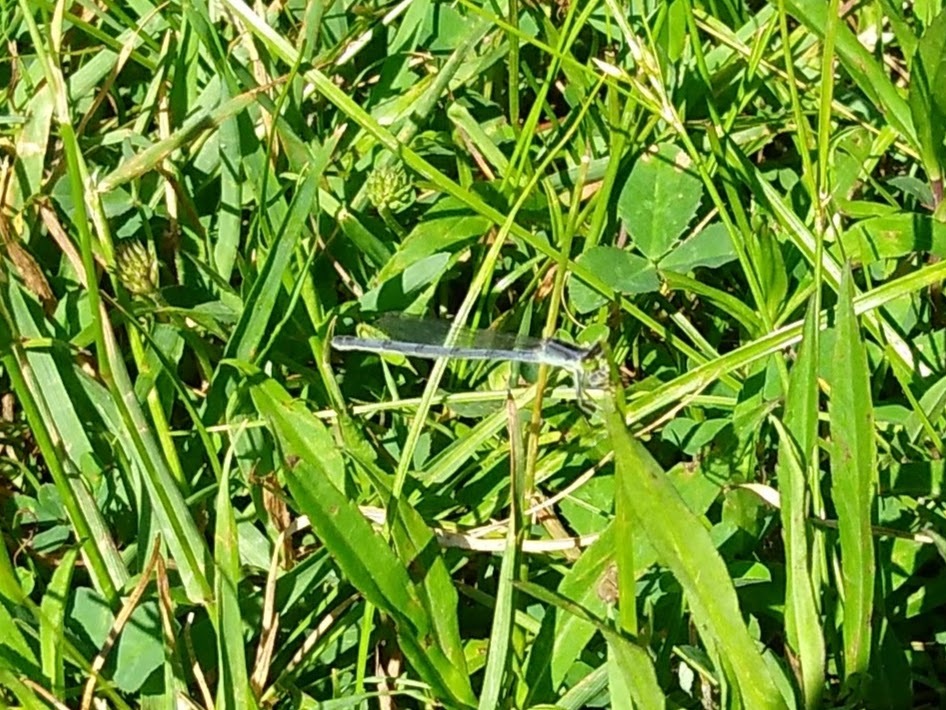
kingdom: Animalia
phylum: Arthropoda
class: Insecta
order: Odonata
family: Coenagrionidae
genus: Ischnura
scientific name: Ischnura verticalis
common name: Eastern forktail
